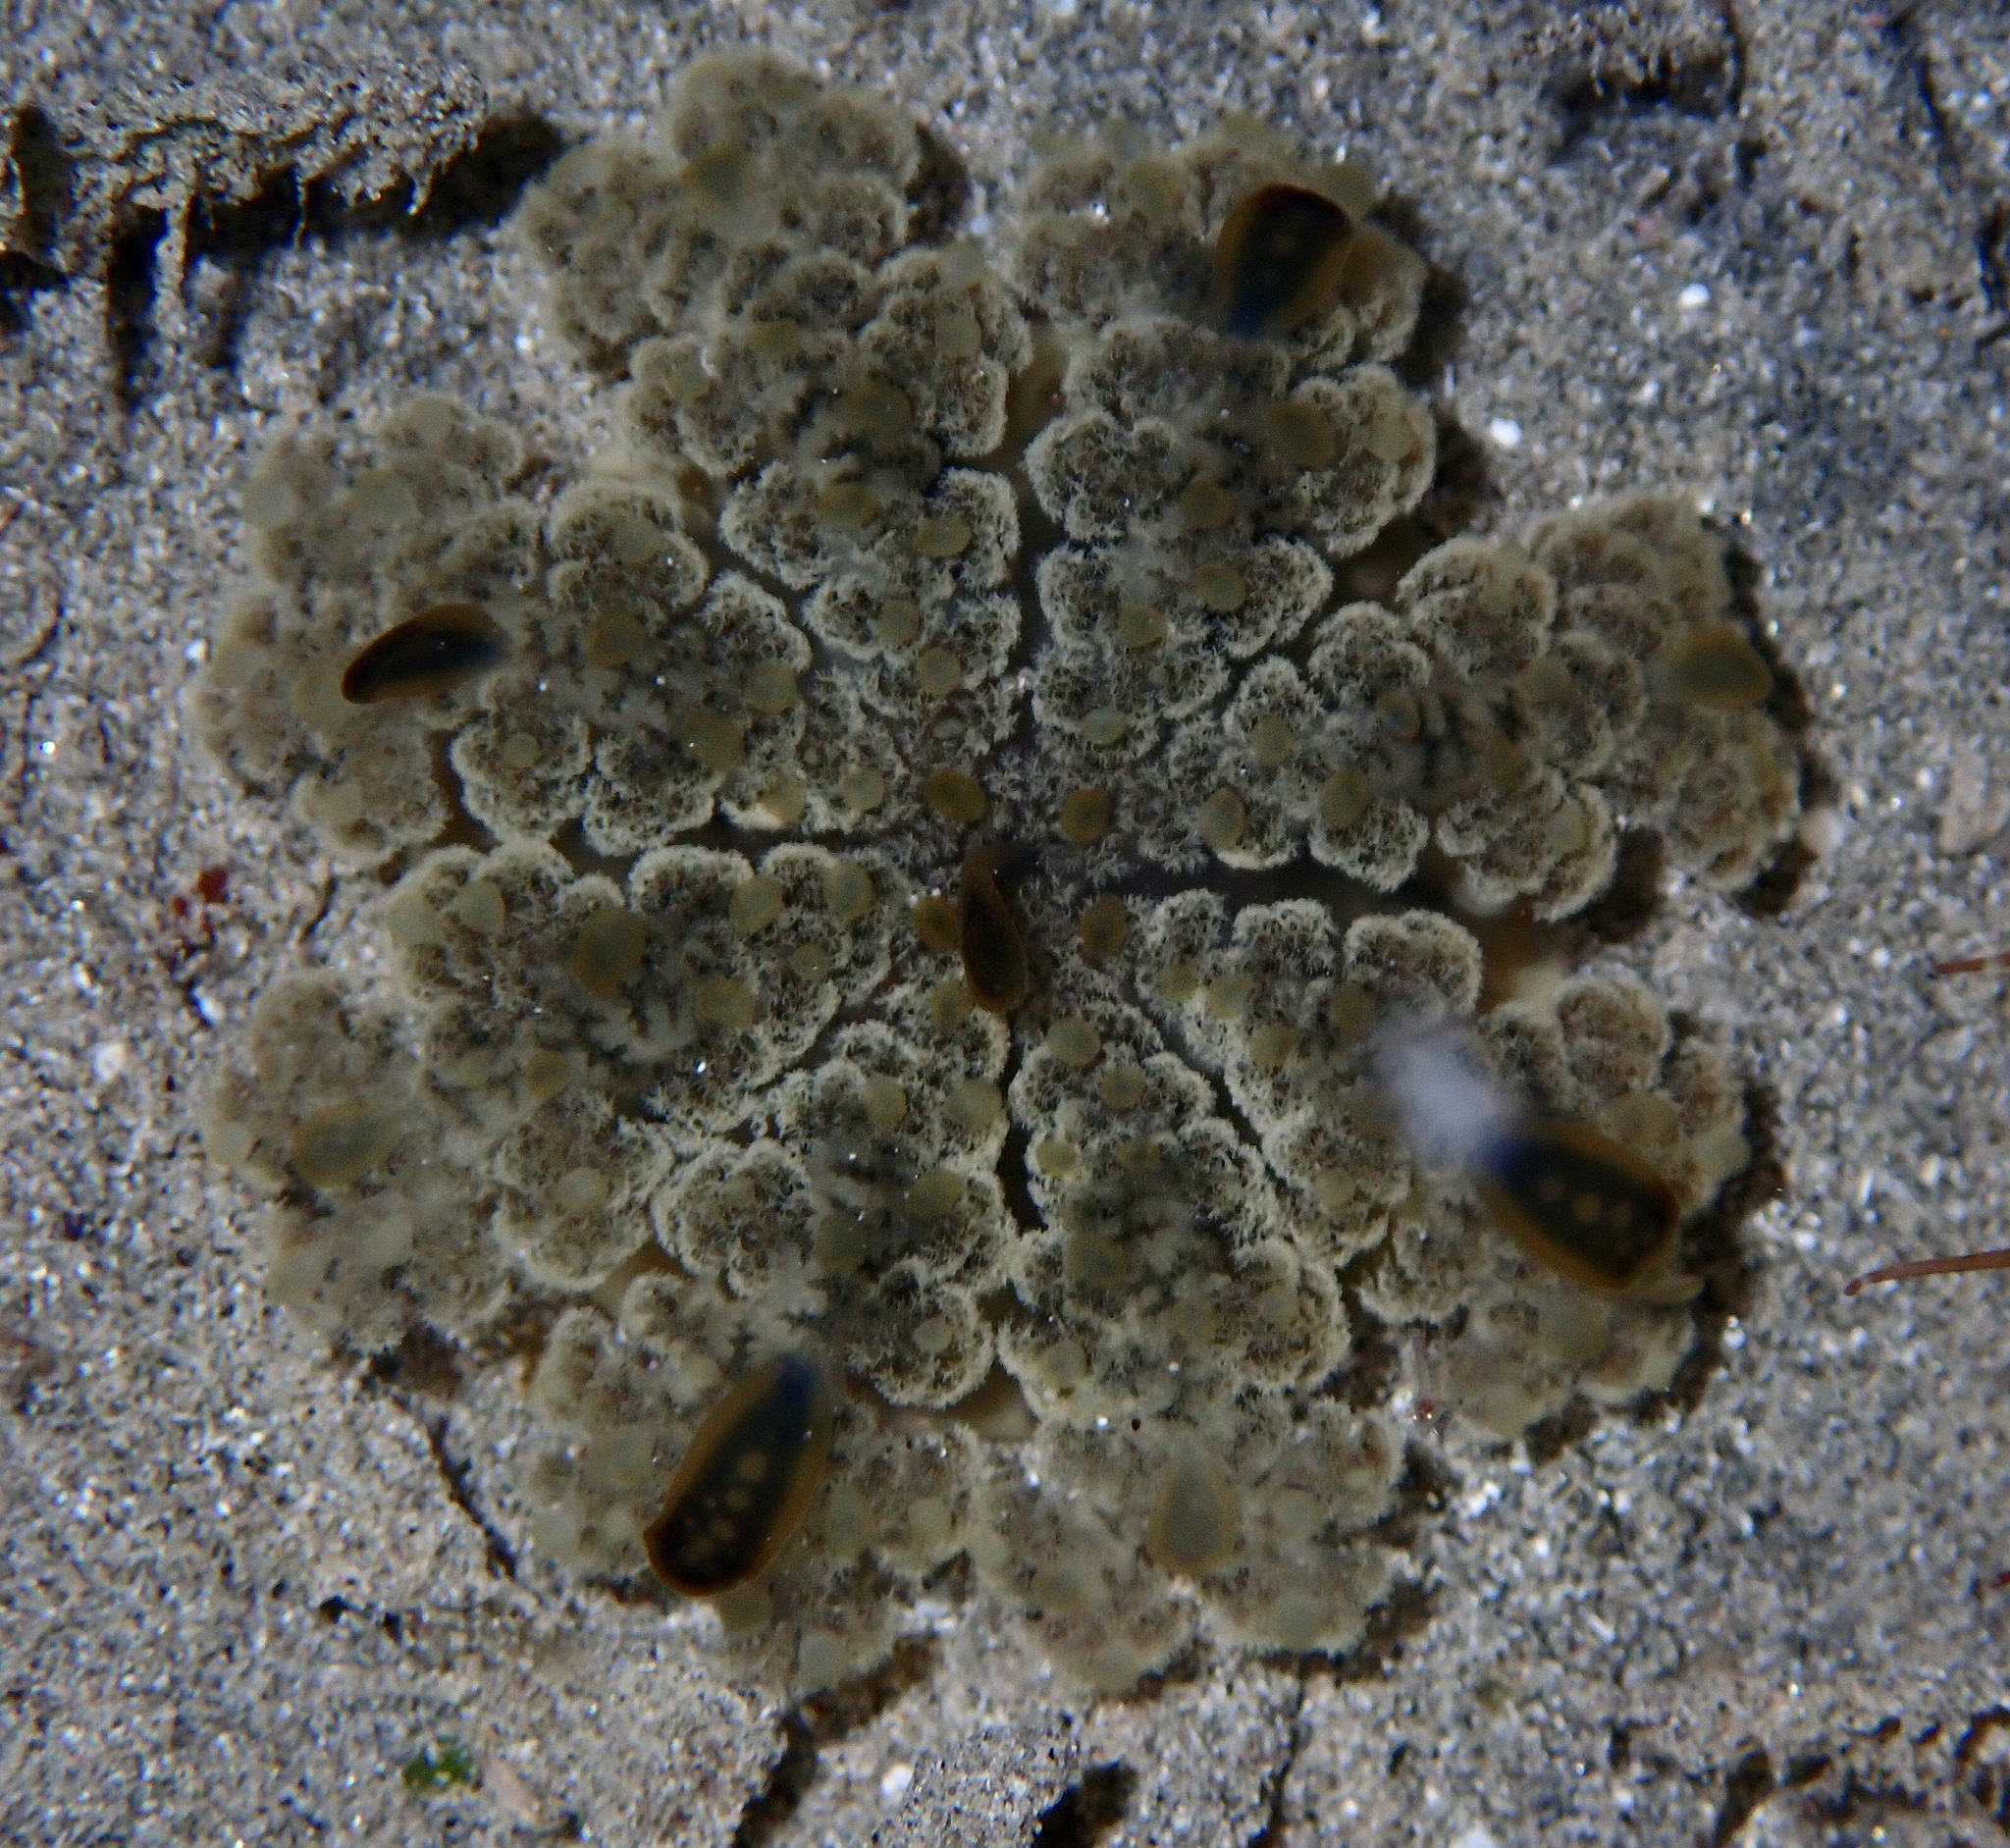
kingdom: Animalia
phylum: Cnidaria
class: Scyphozoa
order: Rhizostomeae
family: Cassiopeidae
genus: Cassiopea
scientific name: Cassiopea andromeda
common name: Upside-down jellyfish
